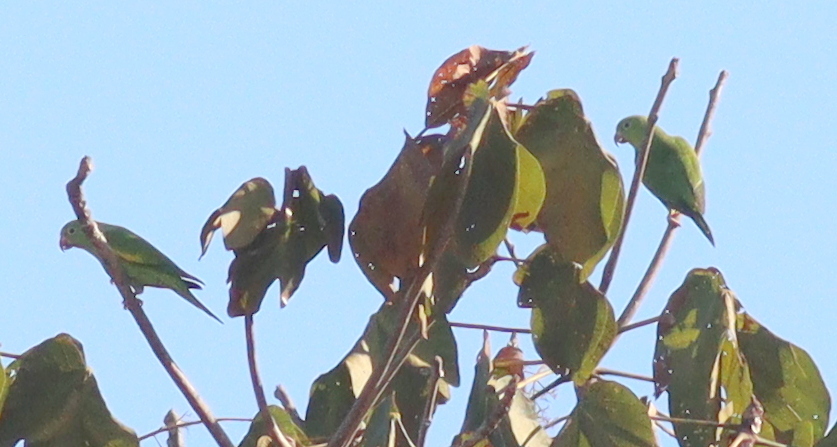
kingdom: Animalia
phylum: Chordata
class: Aves
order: Psittaciformes
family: Psittacidae
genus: Brotogeris
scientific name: Brotogeris chiriri
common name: Yellow-chevroned parakeet
